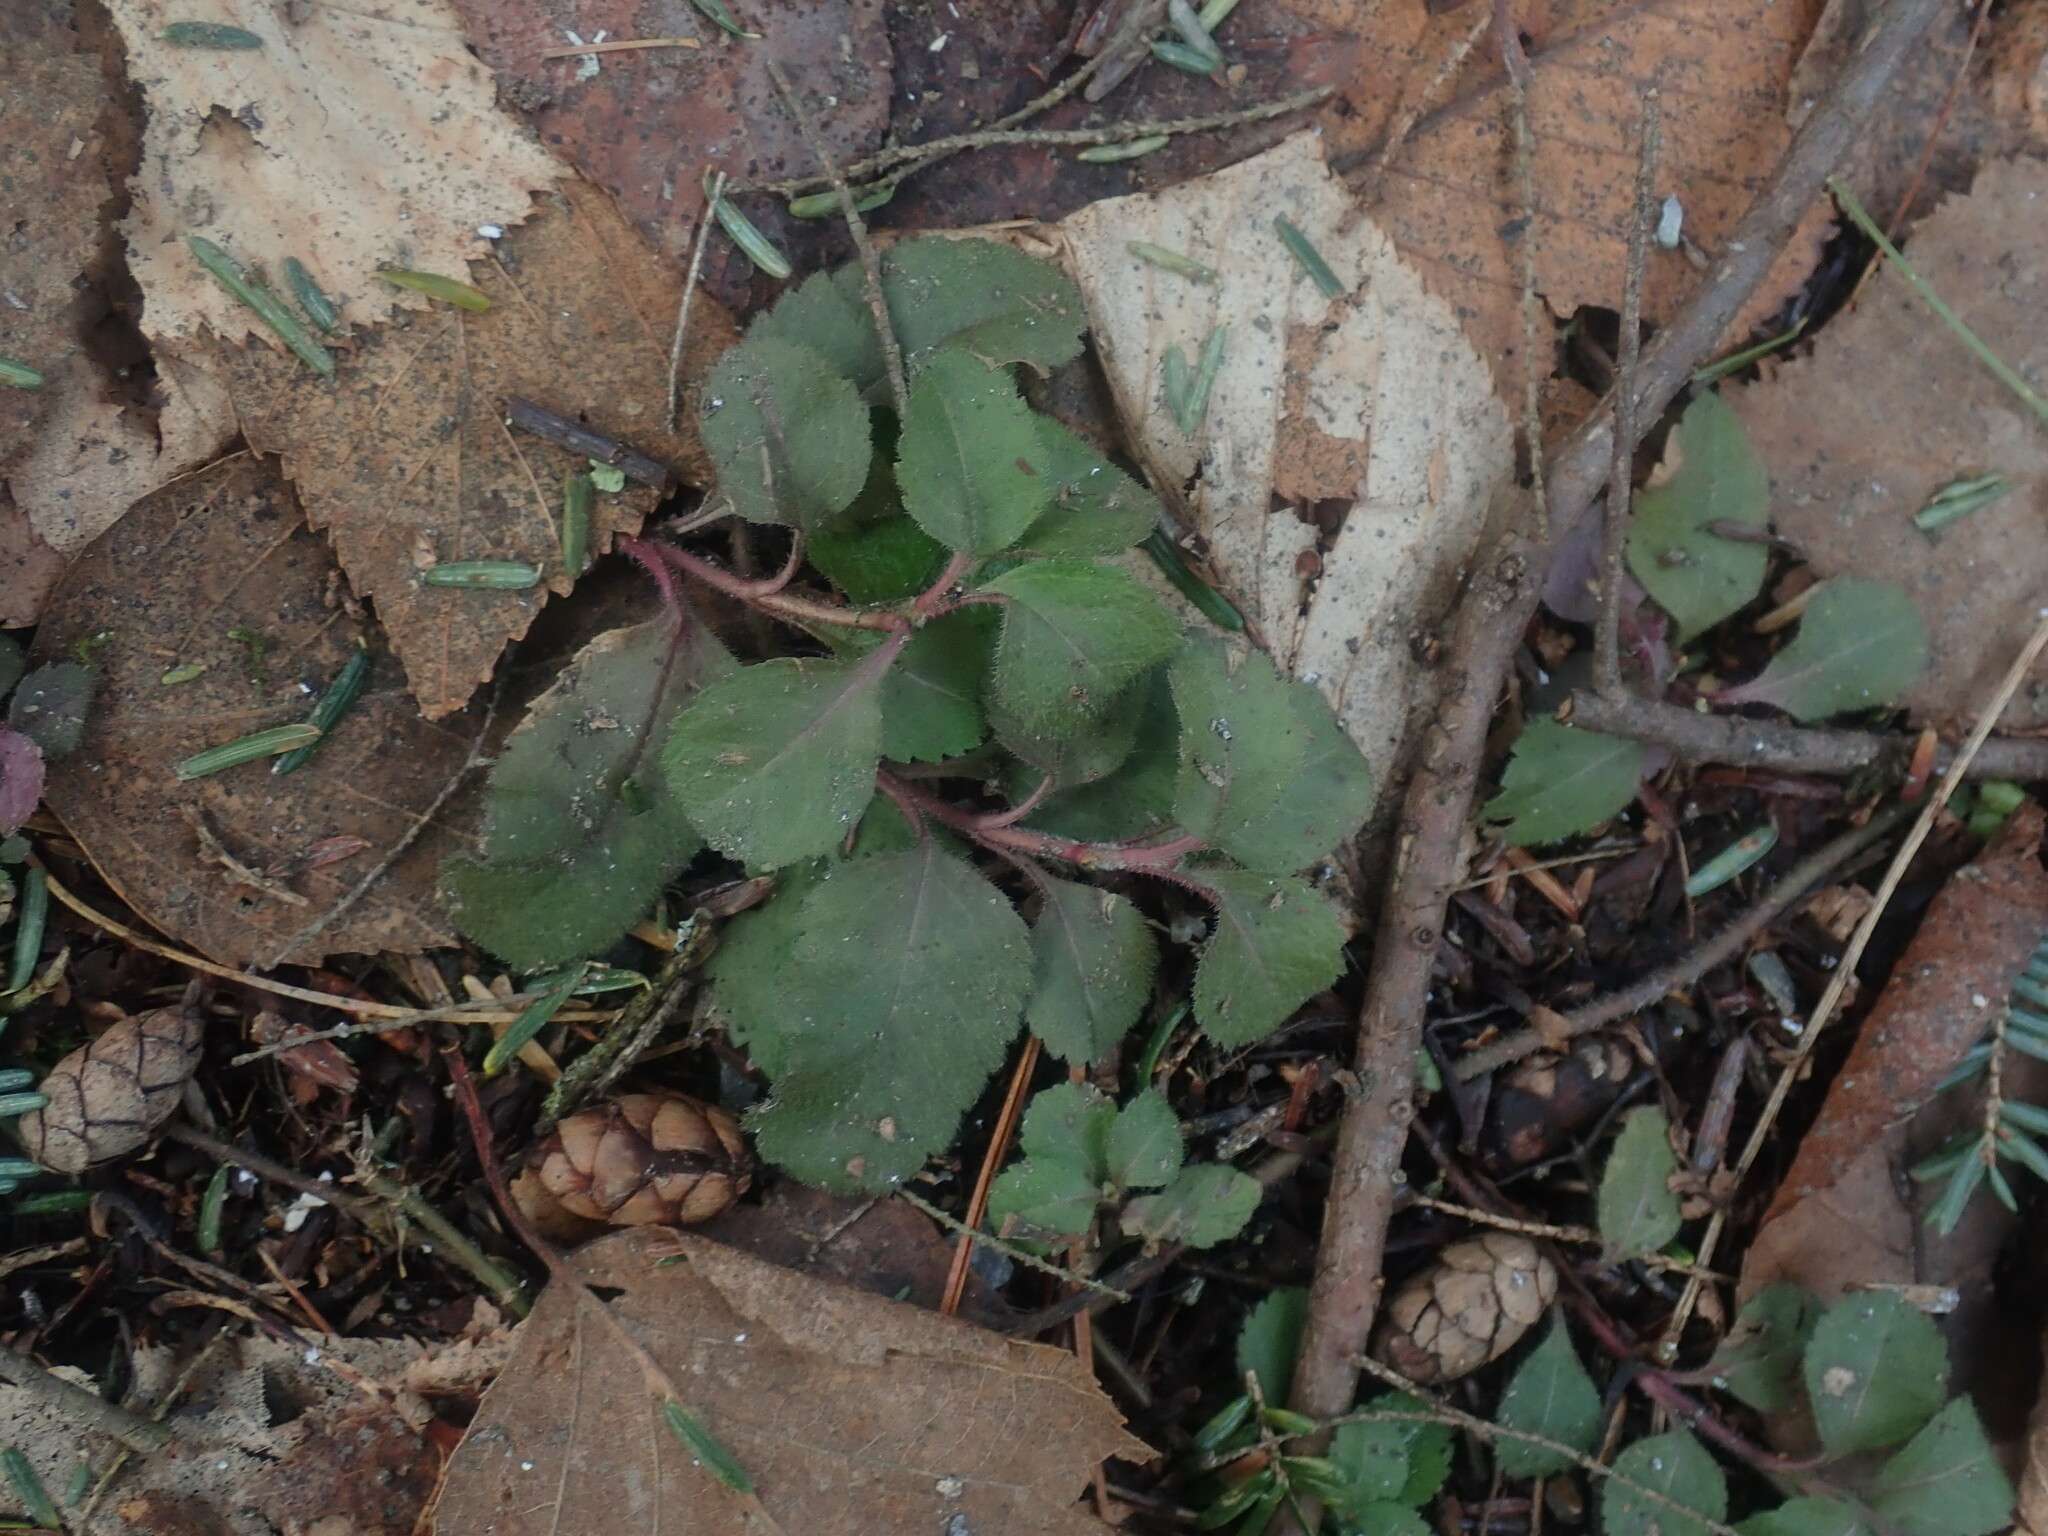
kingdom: Plantae
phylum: Tracheophyta
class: Magnoliopsida
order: Lamiales
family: Plantaginaceae
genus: Veronica
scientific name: Veronica officinalis
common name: Common speedwell
